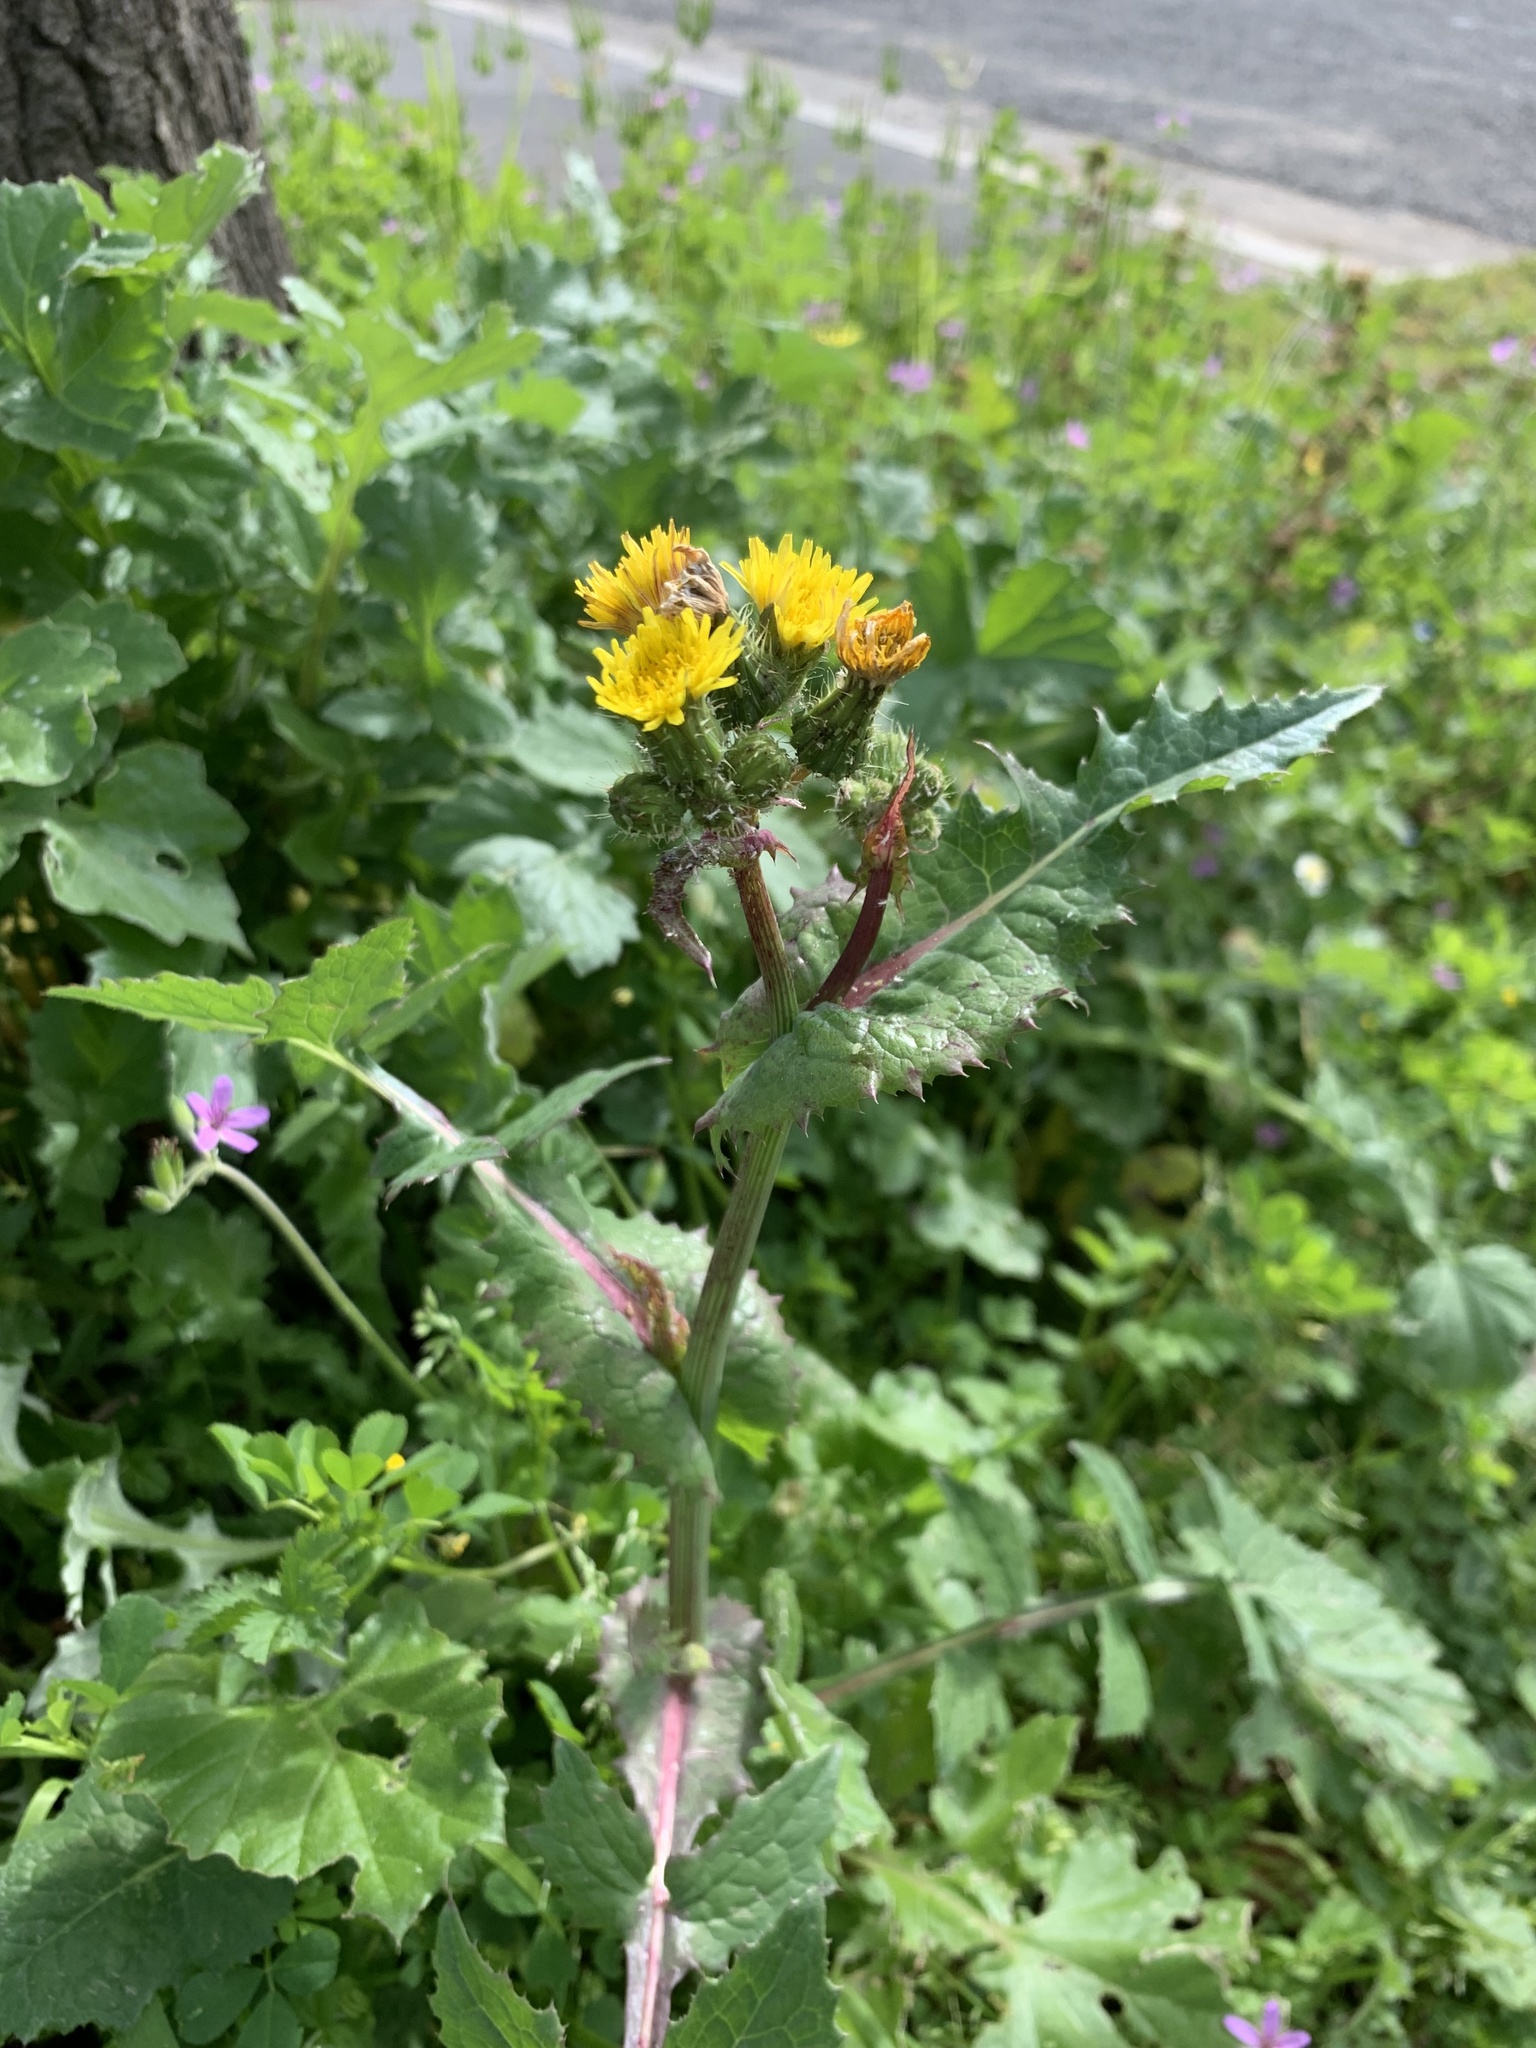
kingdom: Plantae
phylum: Tracheophyta
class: Magnoliopsida
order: Asterales
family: Asteraceae
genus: Sonchus
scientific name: Sonchus oleraceus
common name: Common sowthistle
